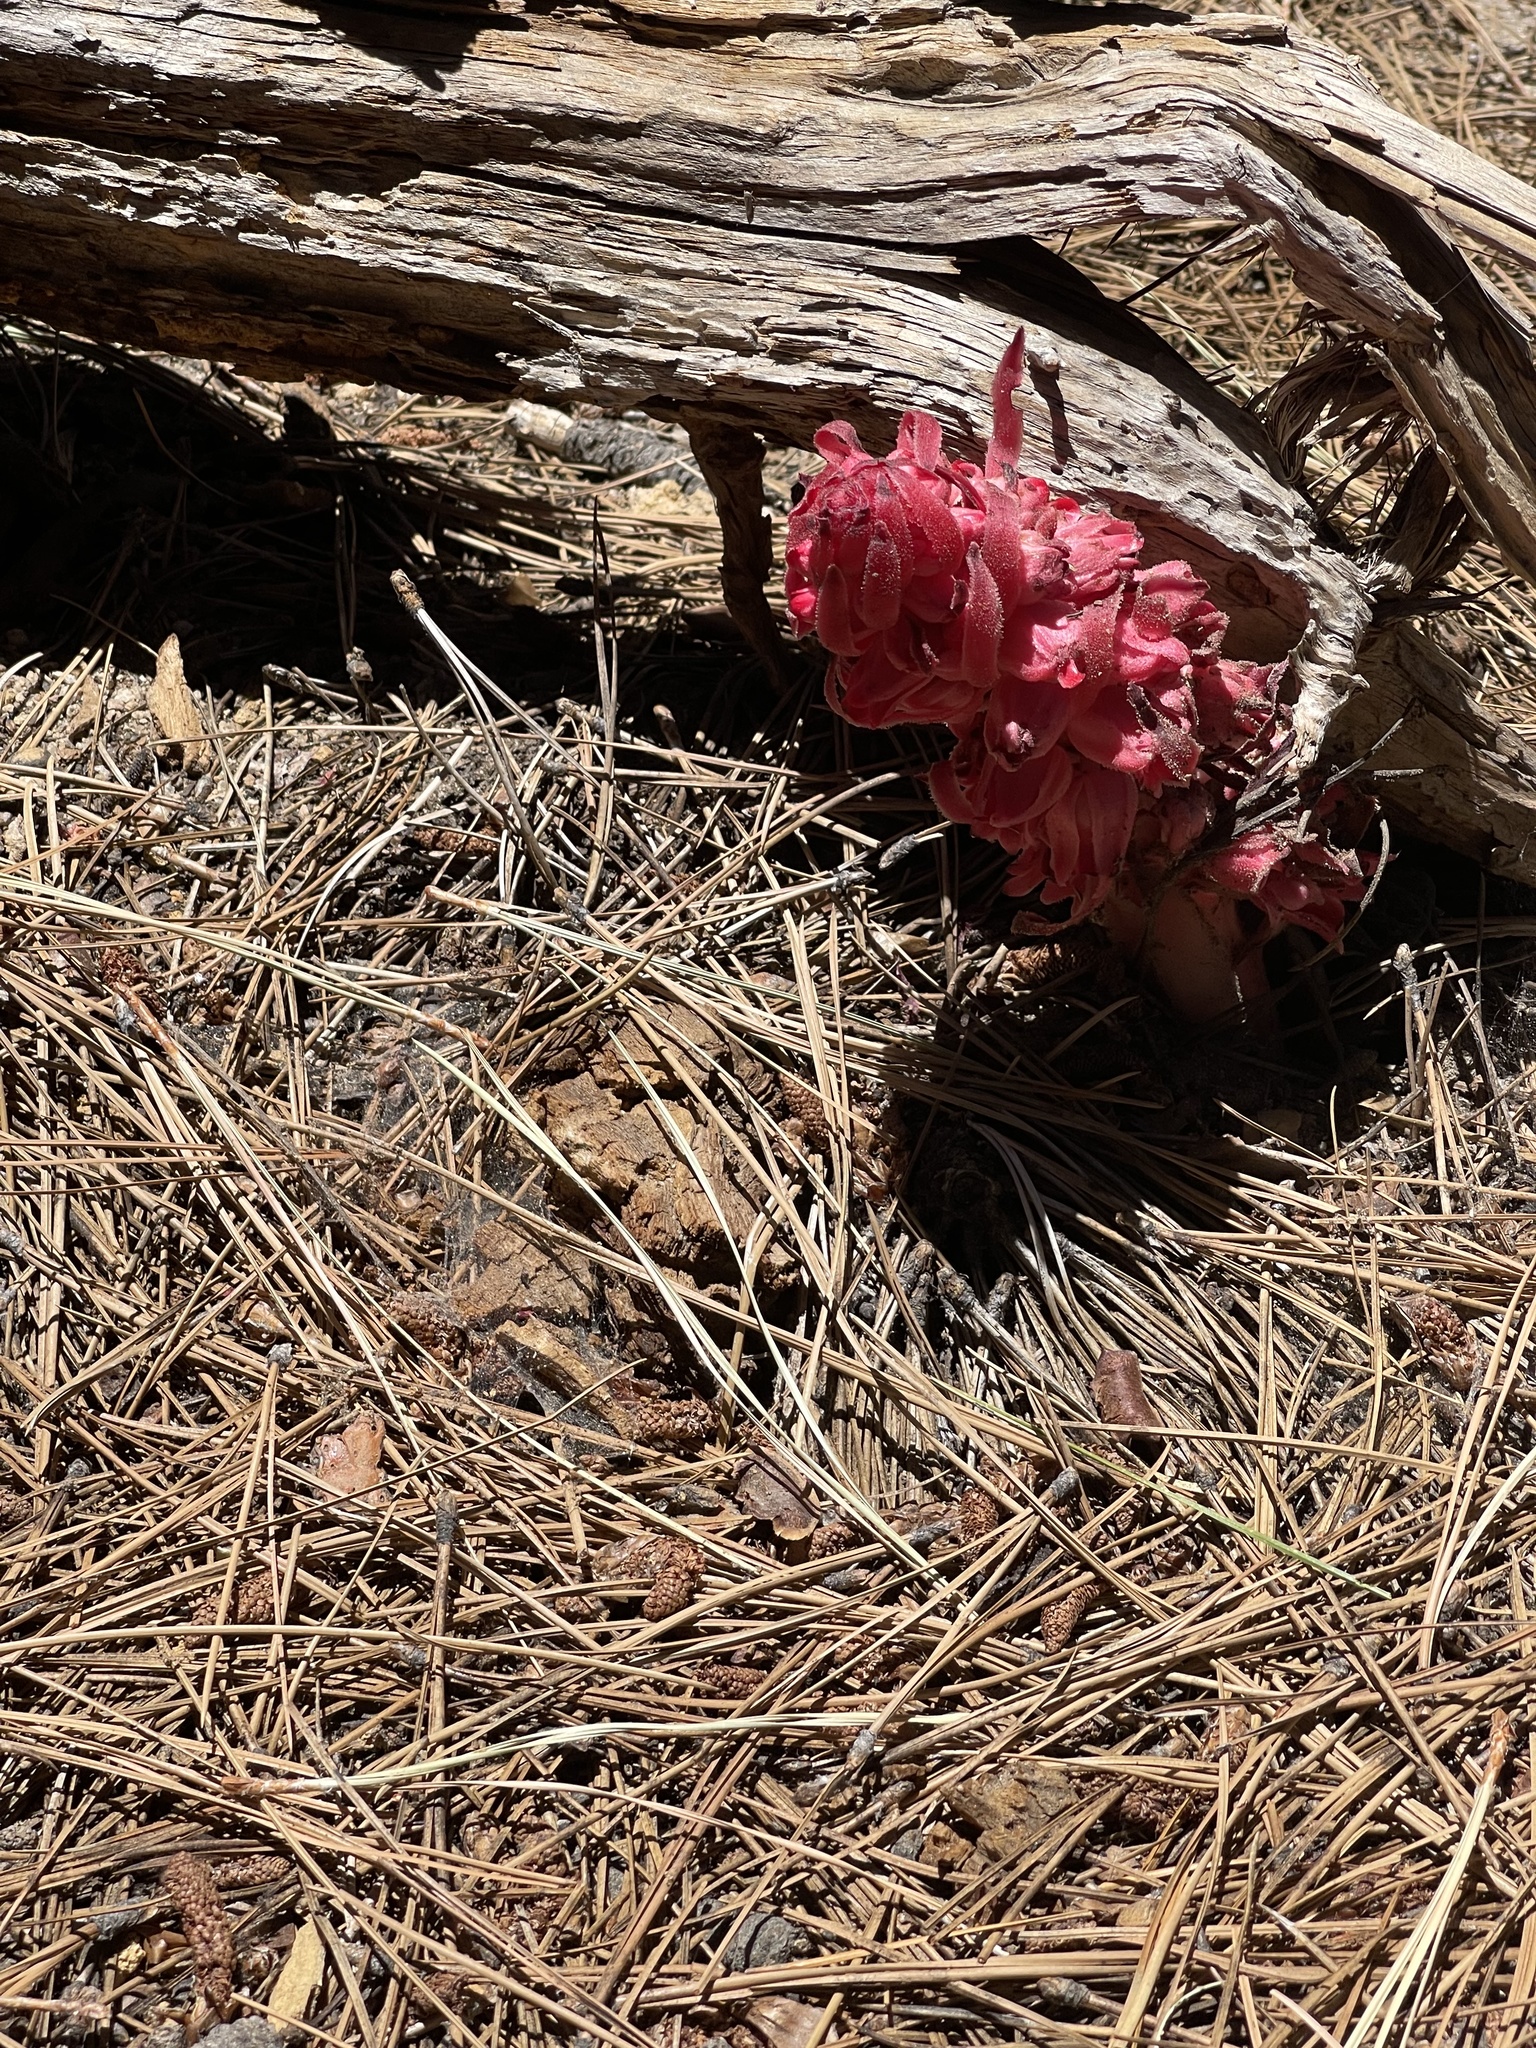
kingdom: Plantae
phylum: Tracheophyta
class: Magnoliopsida
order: Ericales
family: Ericaceae
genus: Sarcodes
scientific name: Sarcodes sanguinea
